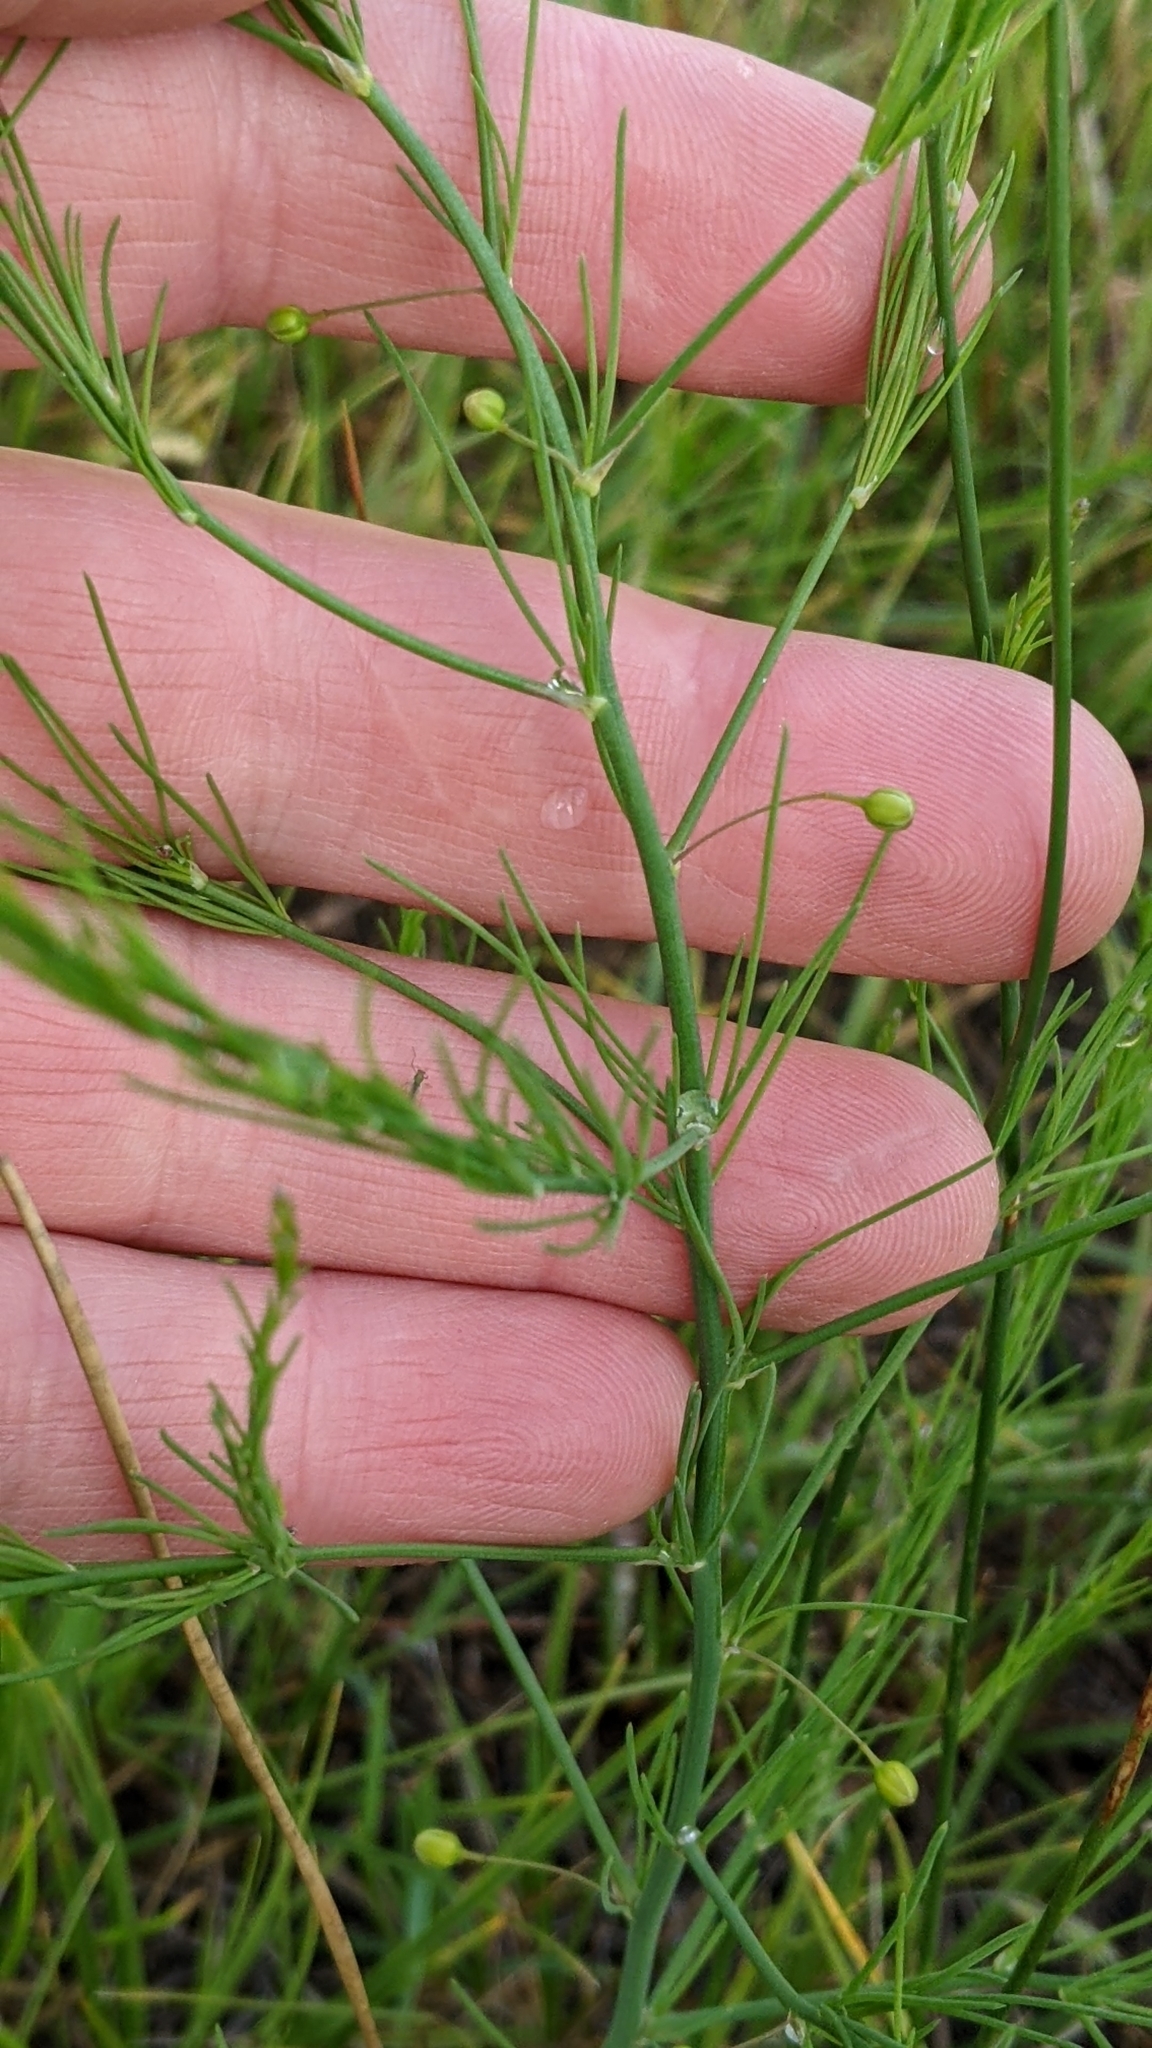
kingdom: Plantae
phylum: Tracheophyta
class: Liliopsida
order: Asparagales
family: Asparagaceae
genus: Asparagus
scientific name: Asparagus officinalis
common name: Garden asparagus
